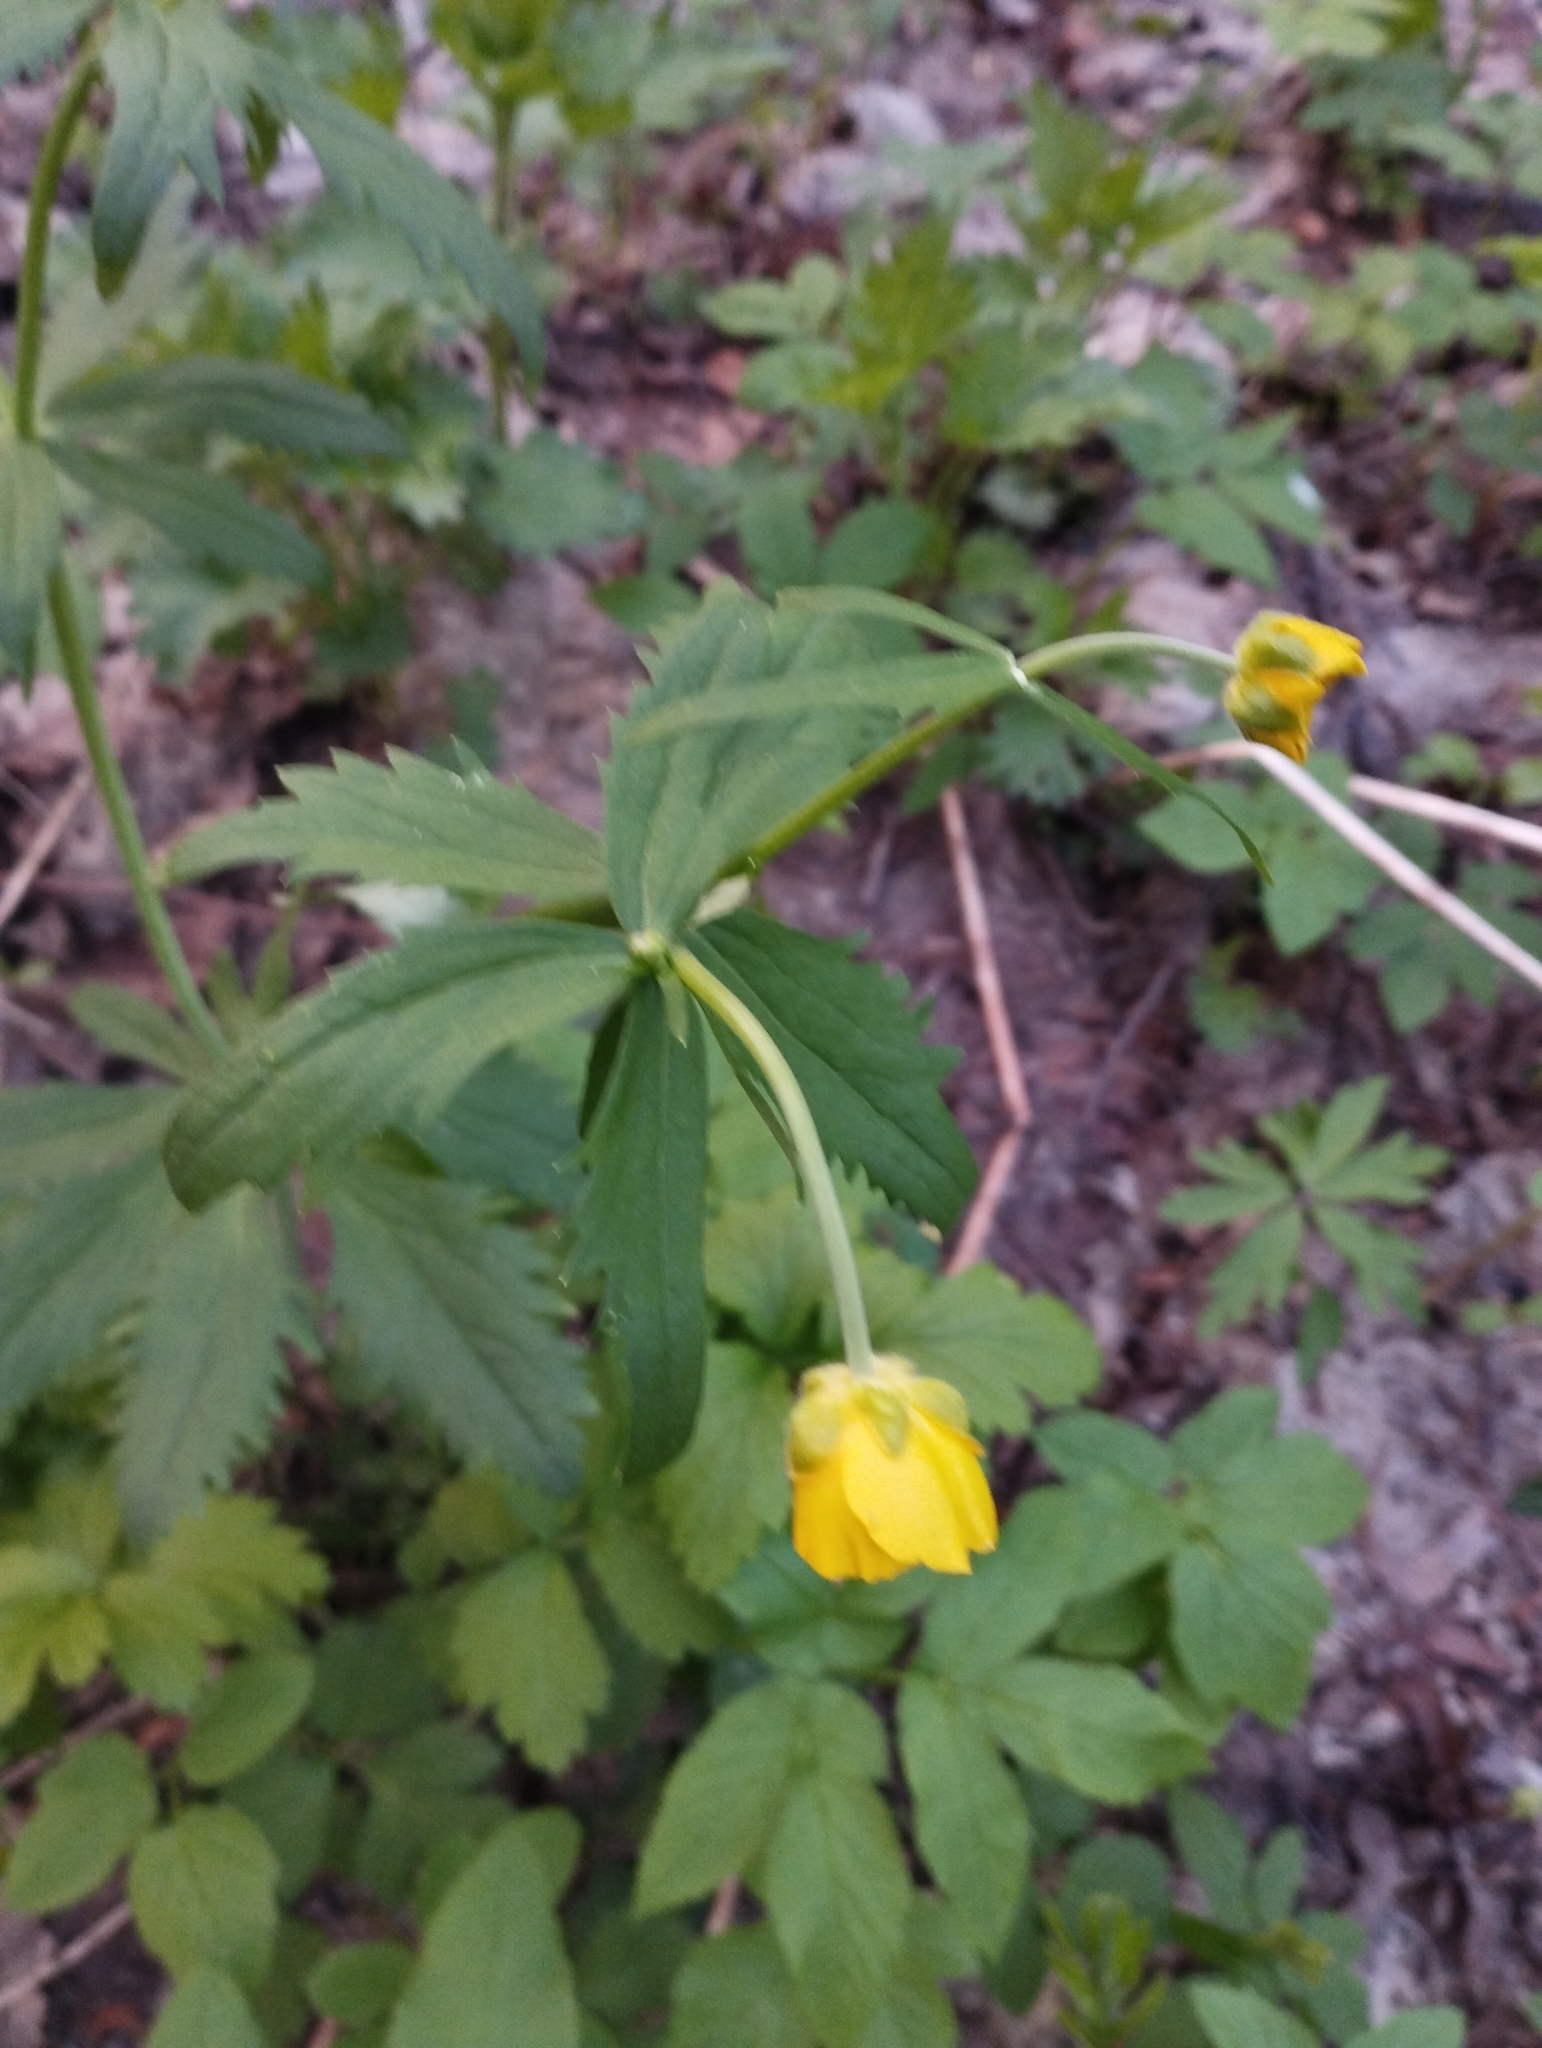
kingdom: Plantae
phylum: Tracheophyta
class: Magnoliopsida
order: Ranunculales
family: Ranunculaceae
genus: Ranunculus
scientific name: Ranunculus cassubicus
